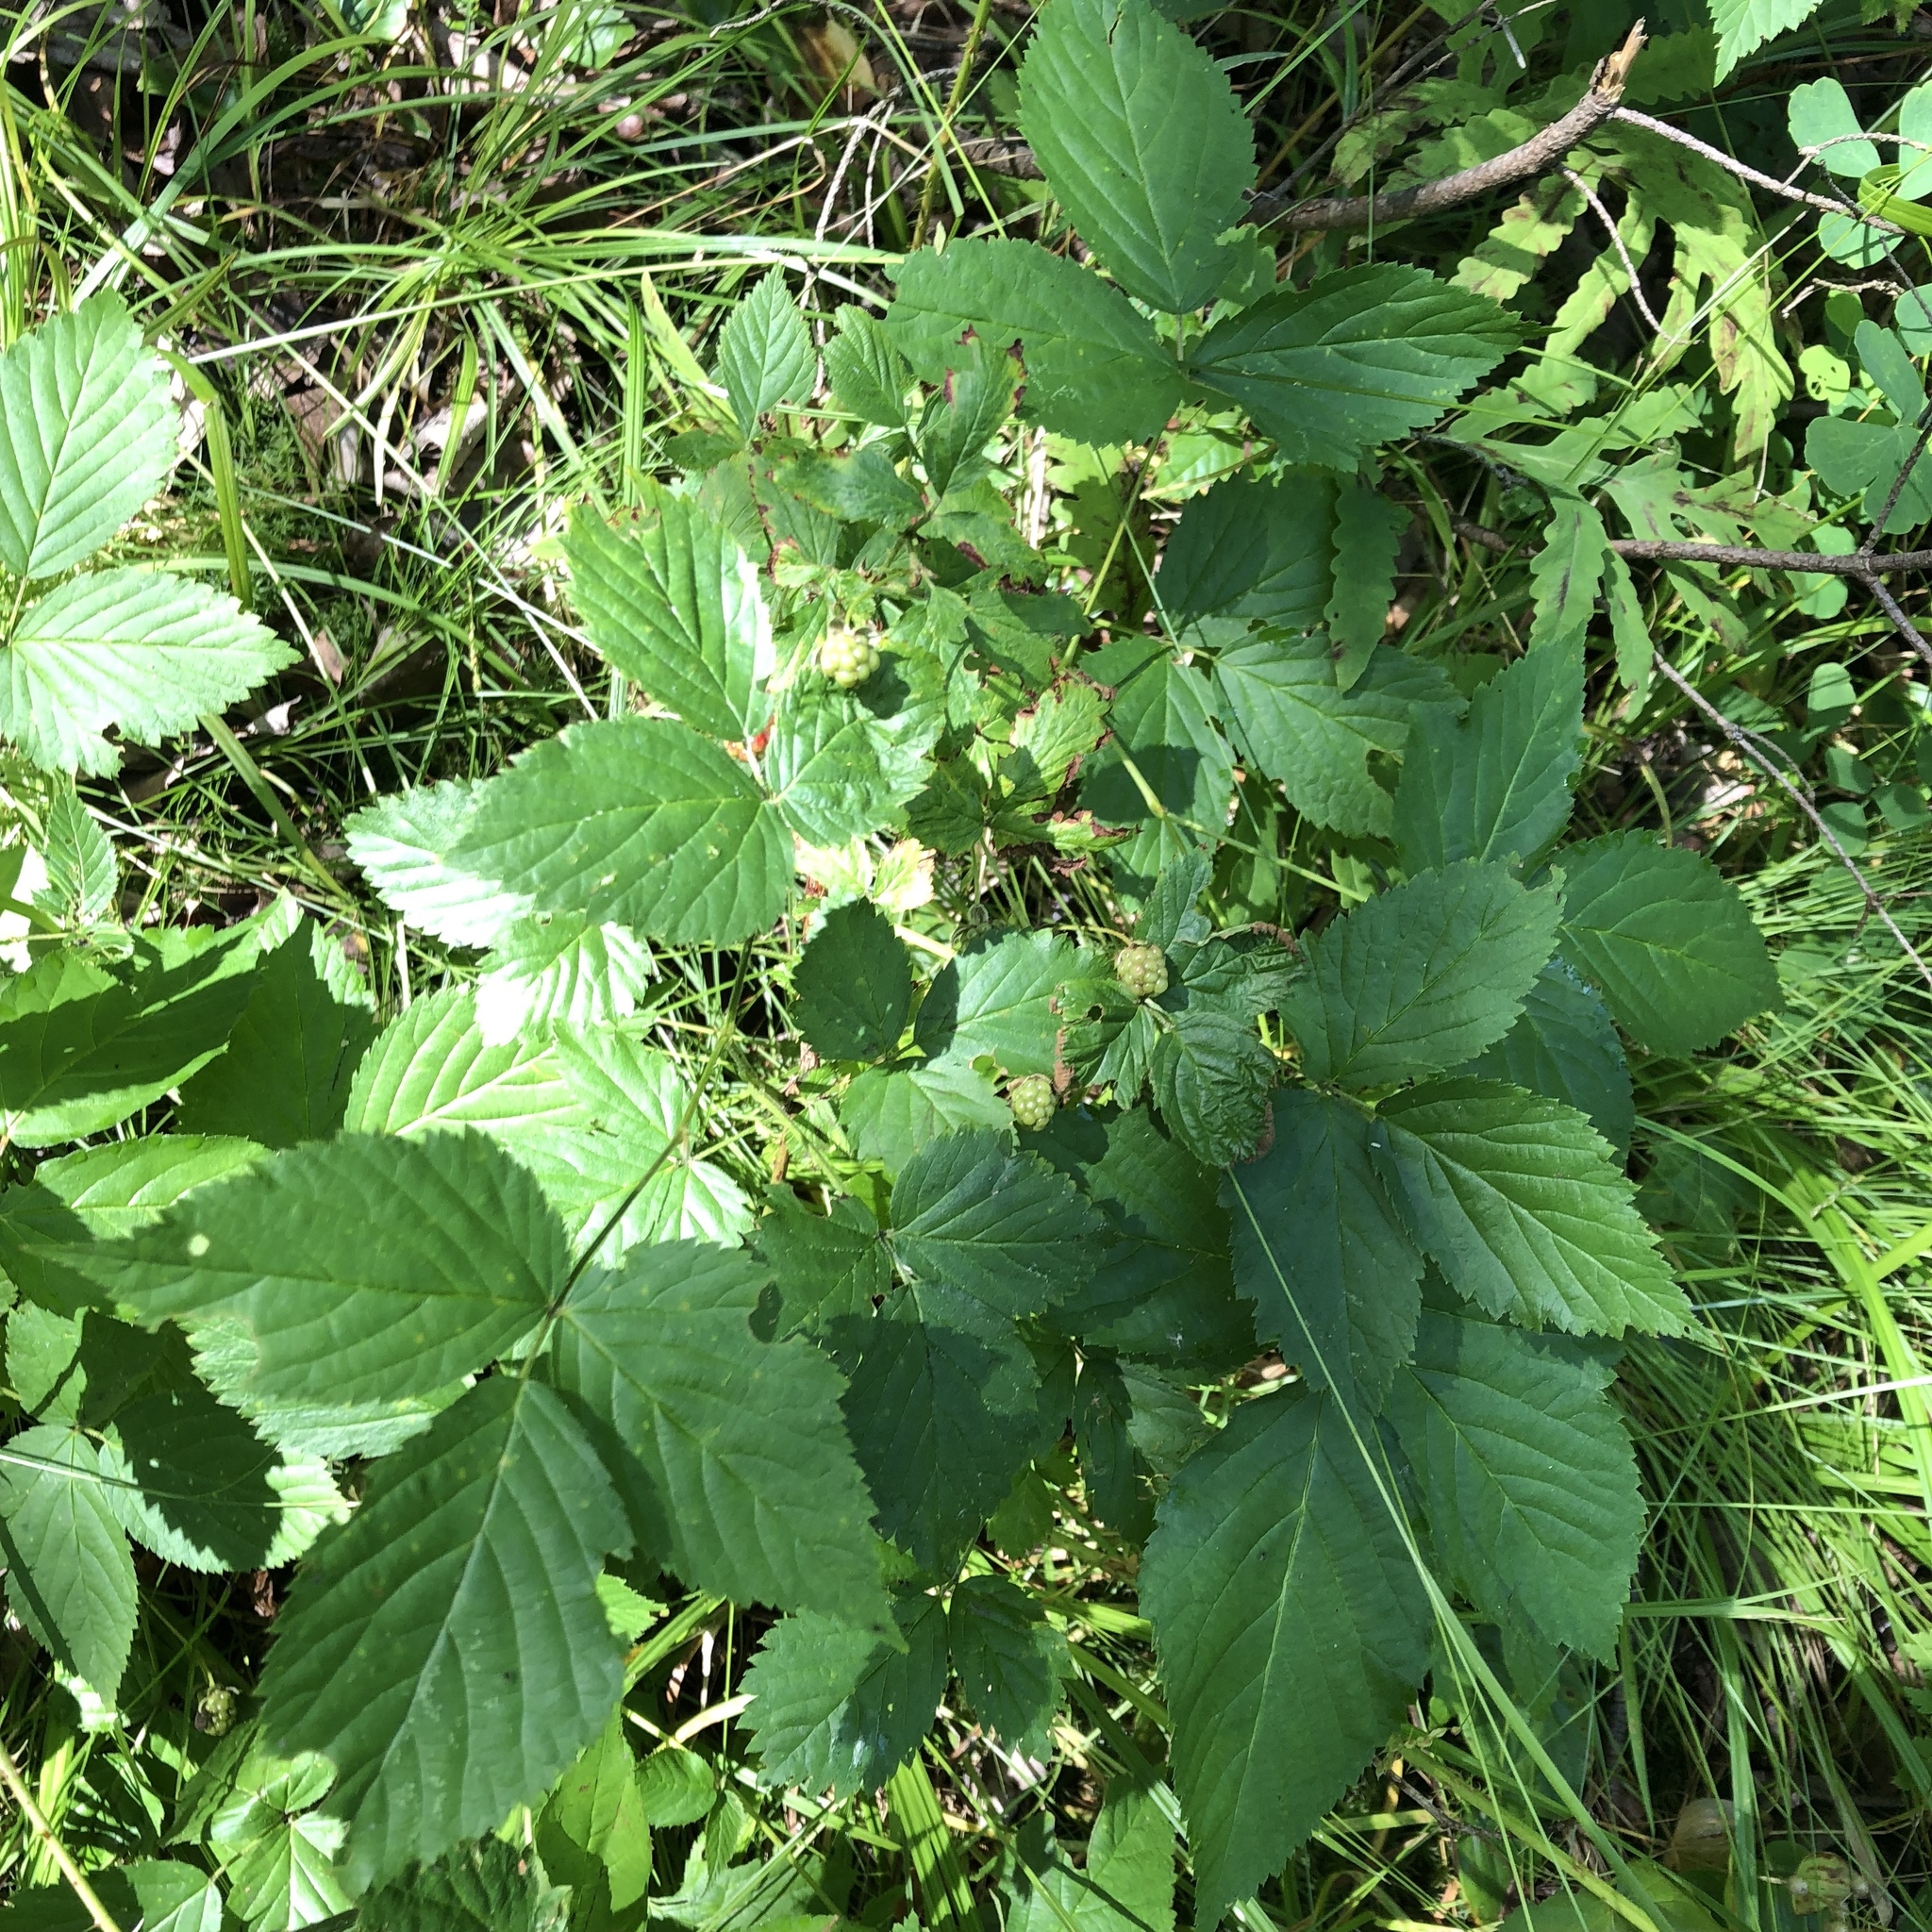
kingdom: Plantae
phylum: Tracheophyta
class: Magnoliopsida
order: Rosales
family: Rosaceae
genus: Rubus
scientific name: Rubus allegheniensis
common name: Allegheny blackberry
